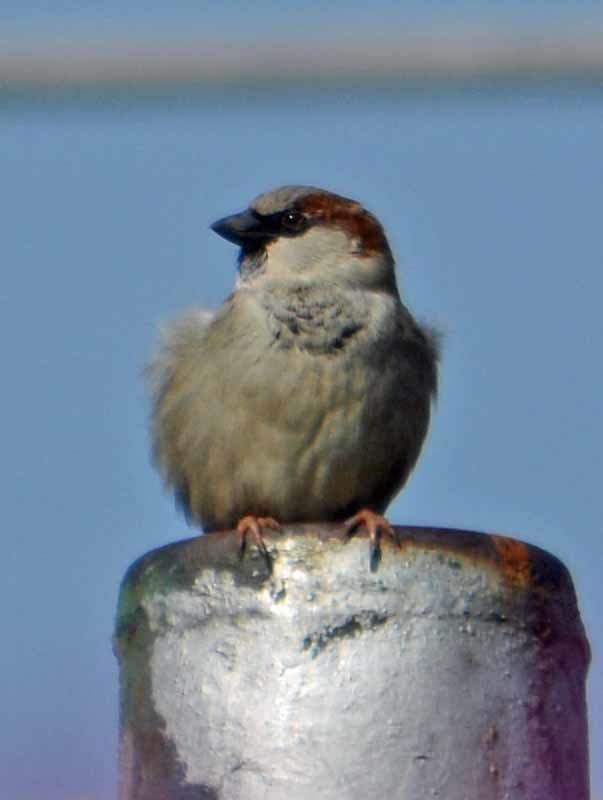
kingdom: Animalia
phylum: Chordata
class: Aves
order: Passeriformes
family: Passeridae
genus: Passer
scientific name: Passer domesticus
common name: House sparrow
